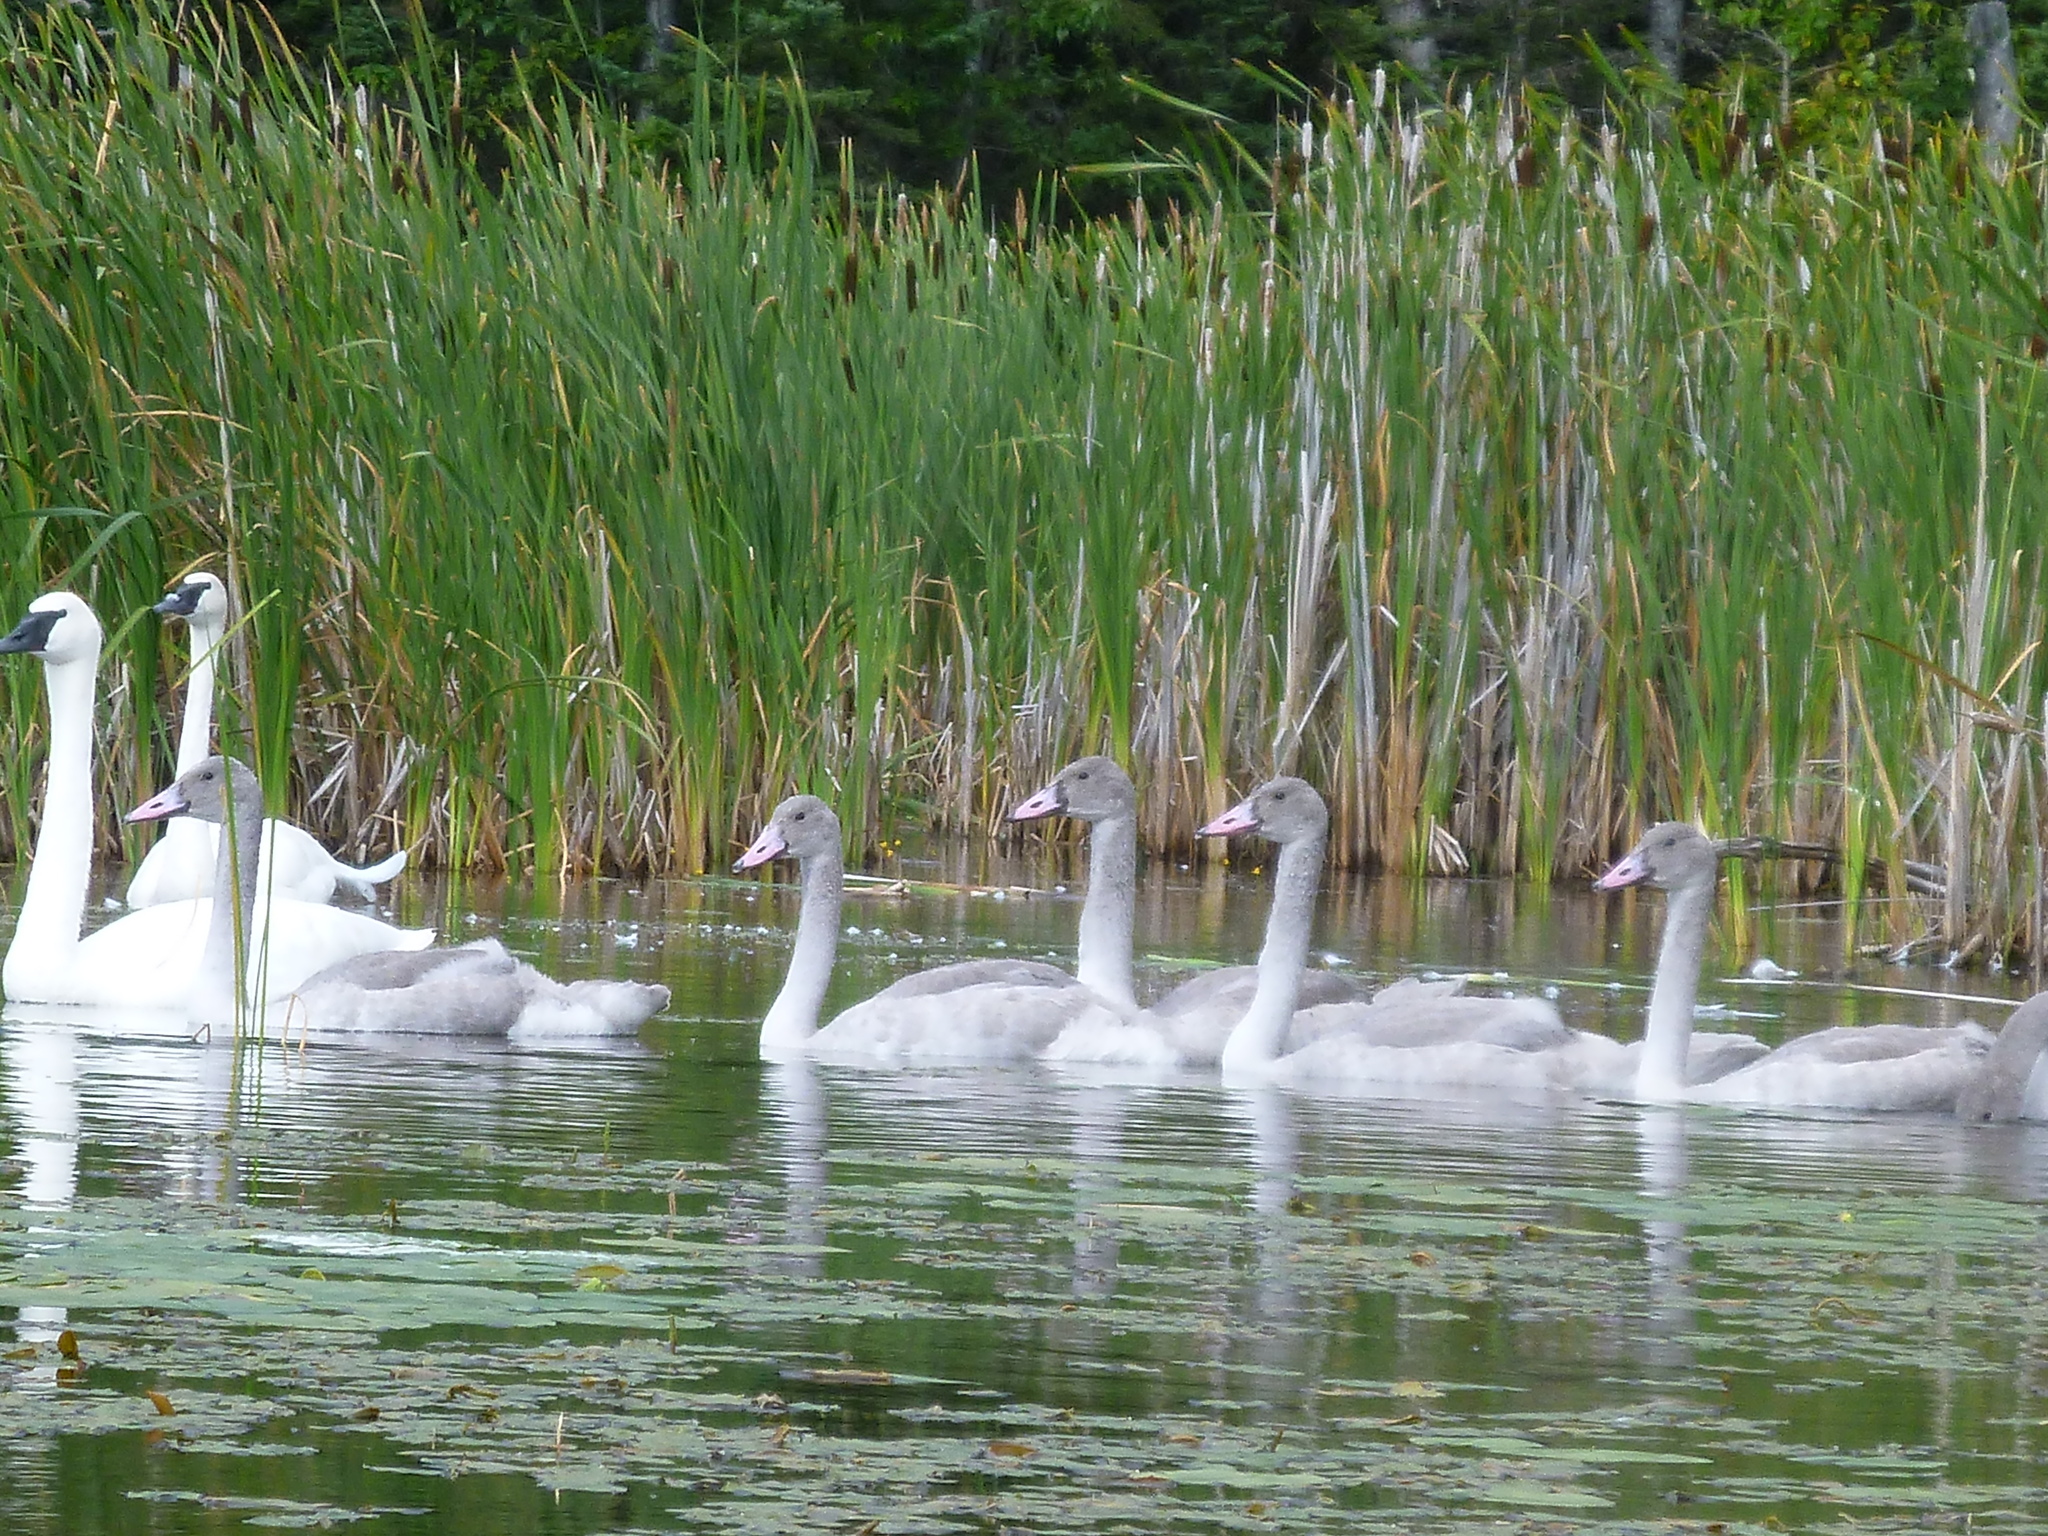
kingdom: Animalia
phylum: Chordata
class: Aves
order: Anseriformes
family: Anatidae
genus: Cygnus
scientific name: Cygnus buccinator
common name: Trumpeter swan
